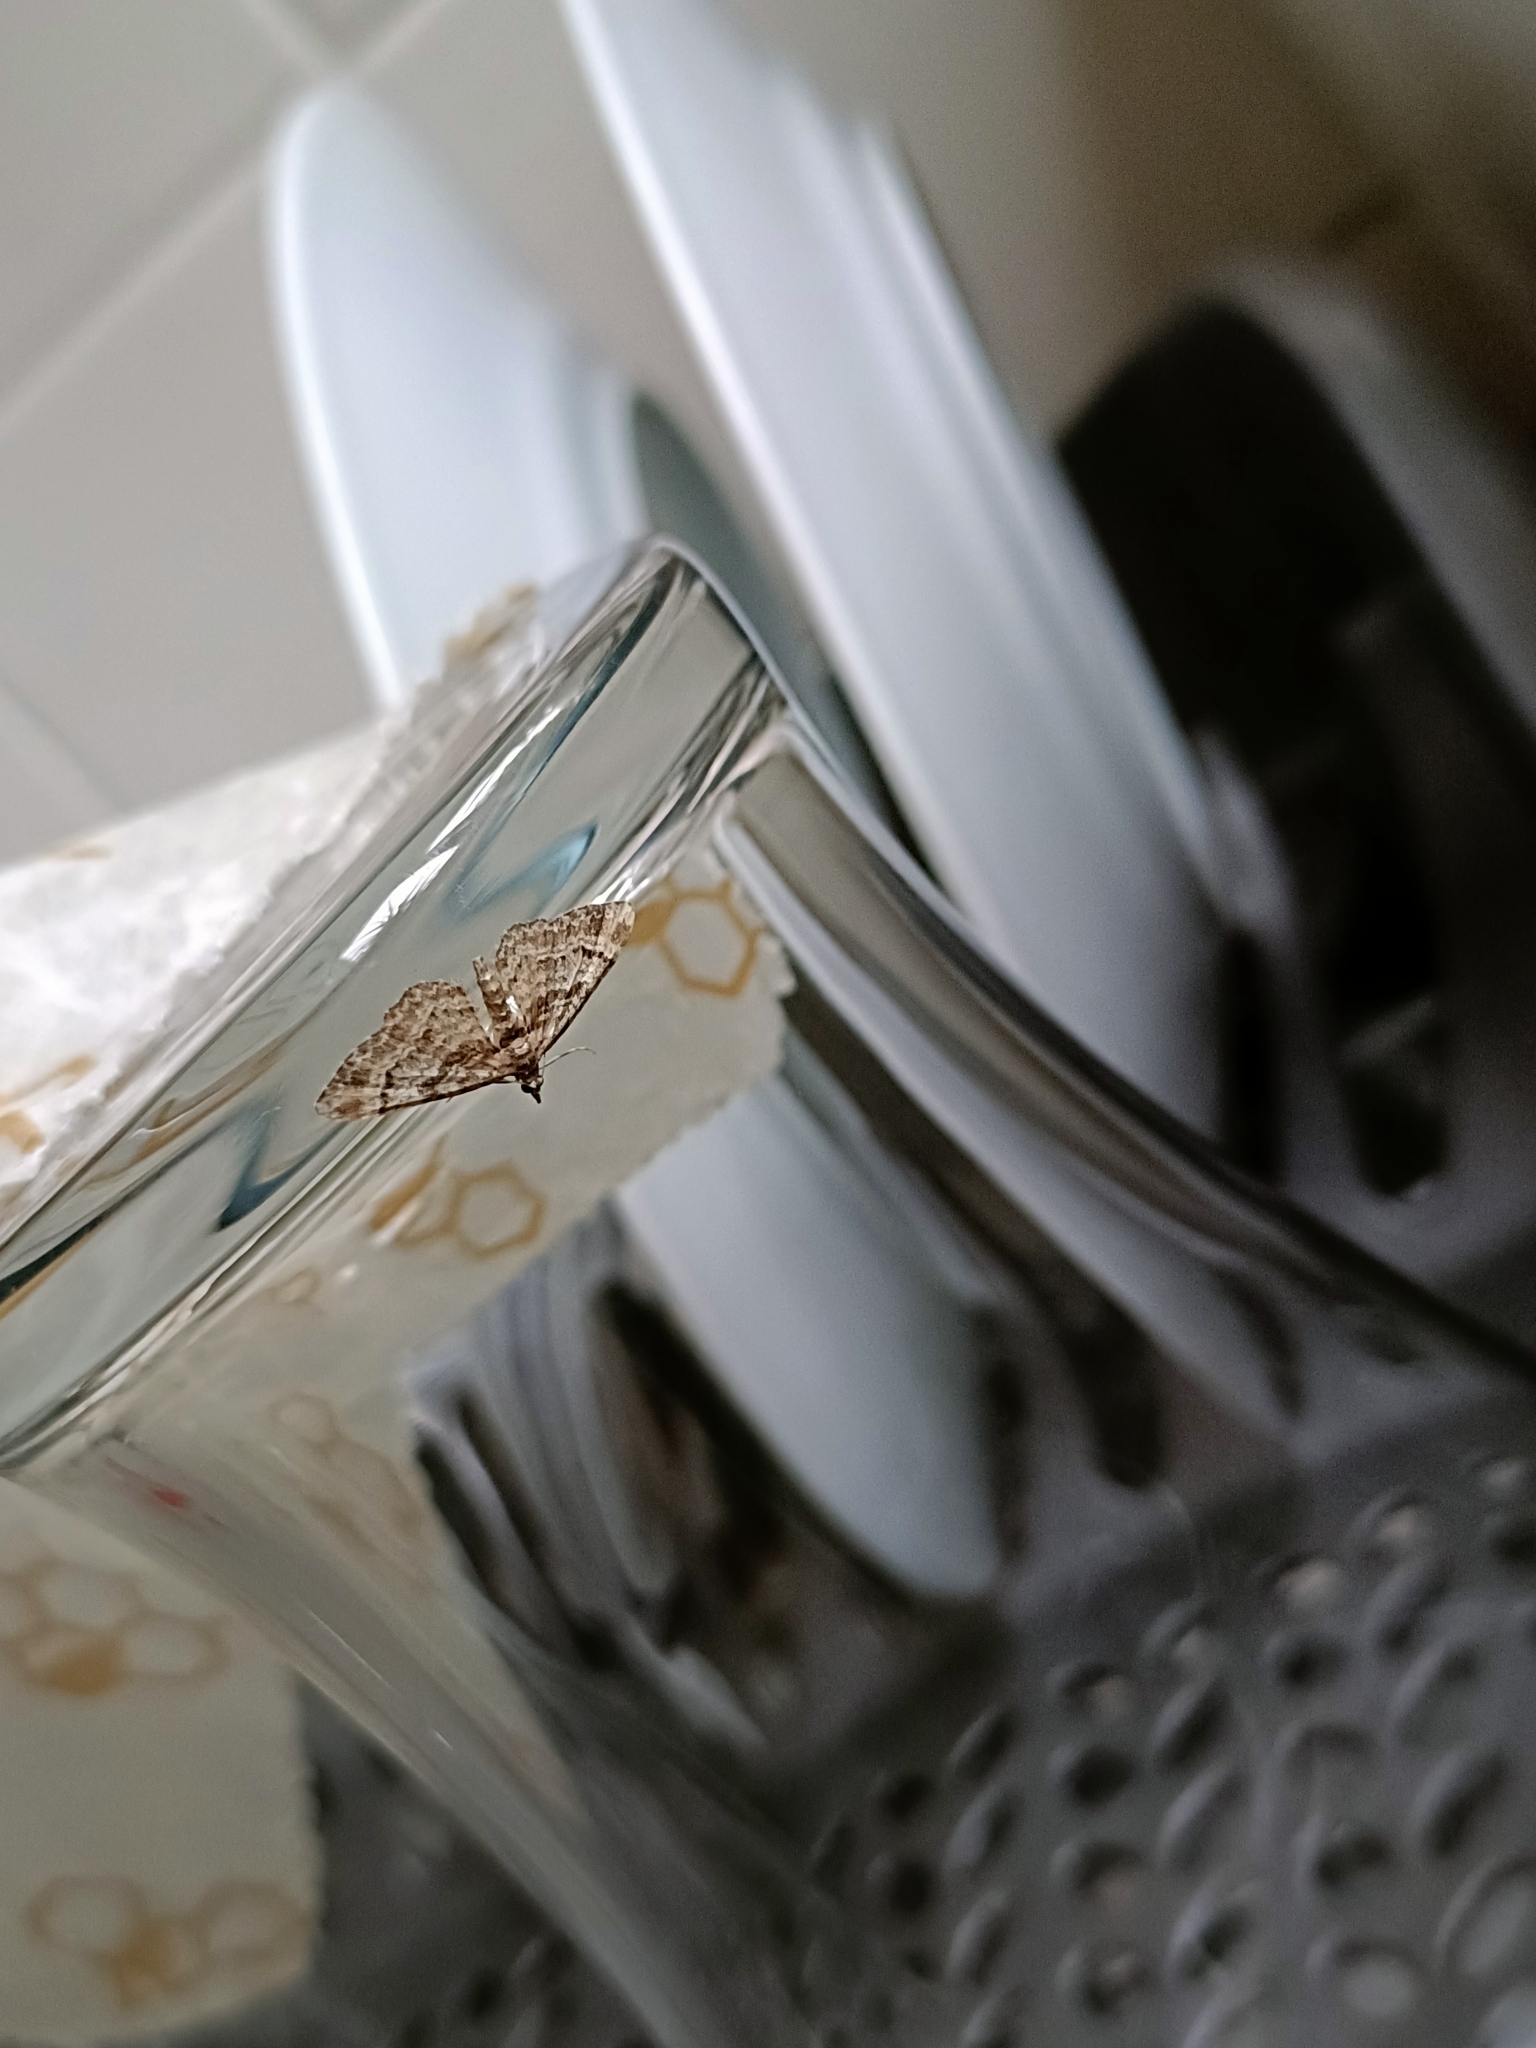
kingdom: Animalia
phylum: Arthropoda
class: Insecta
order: Lepidoptera
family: Geometridae
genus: Gymnoscelis
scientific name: Gymnoscelis rufifasciata
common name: Double-striped pug
